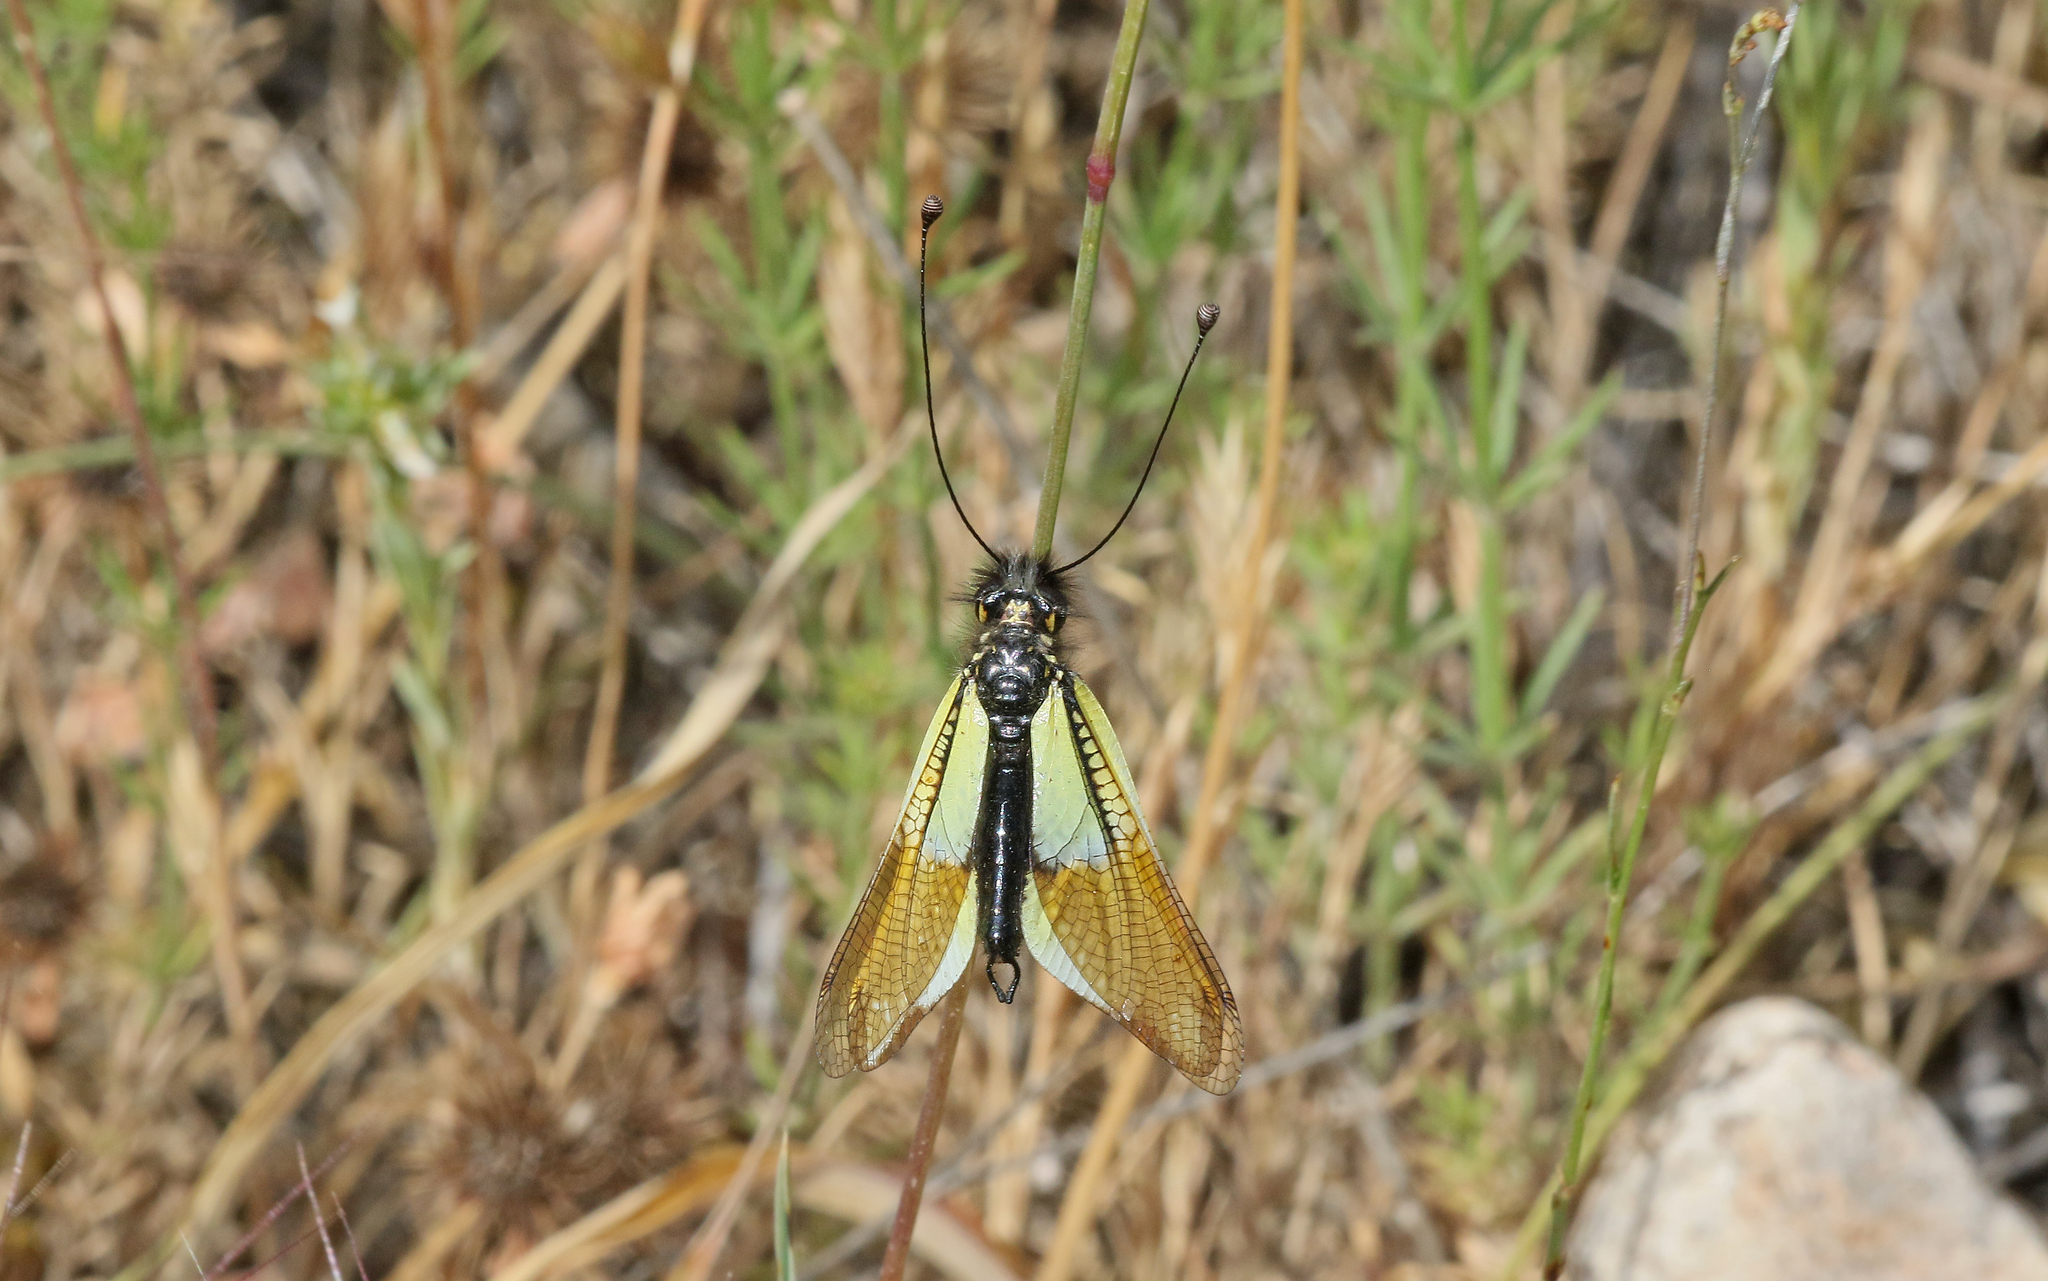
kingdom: Animalia
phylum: Arthropoda
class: Insecta
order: Neuroptera
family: Ascalaphidae
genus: Libelloides
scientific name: Libelloides baeticus
